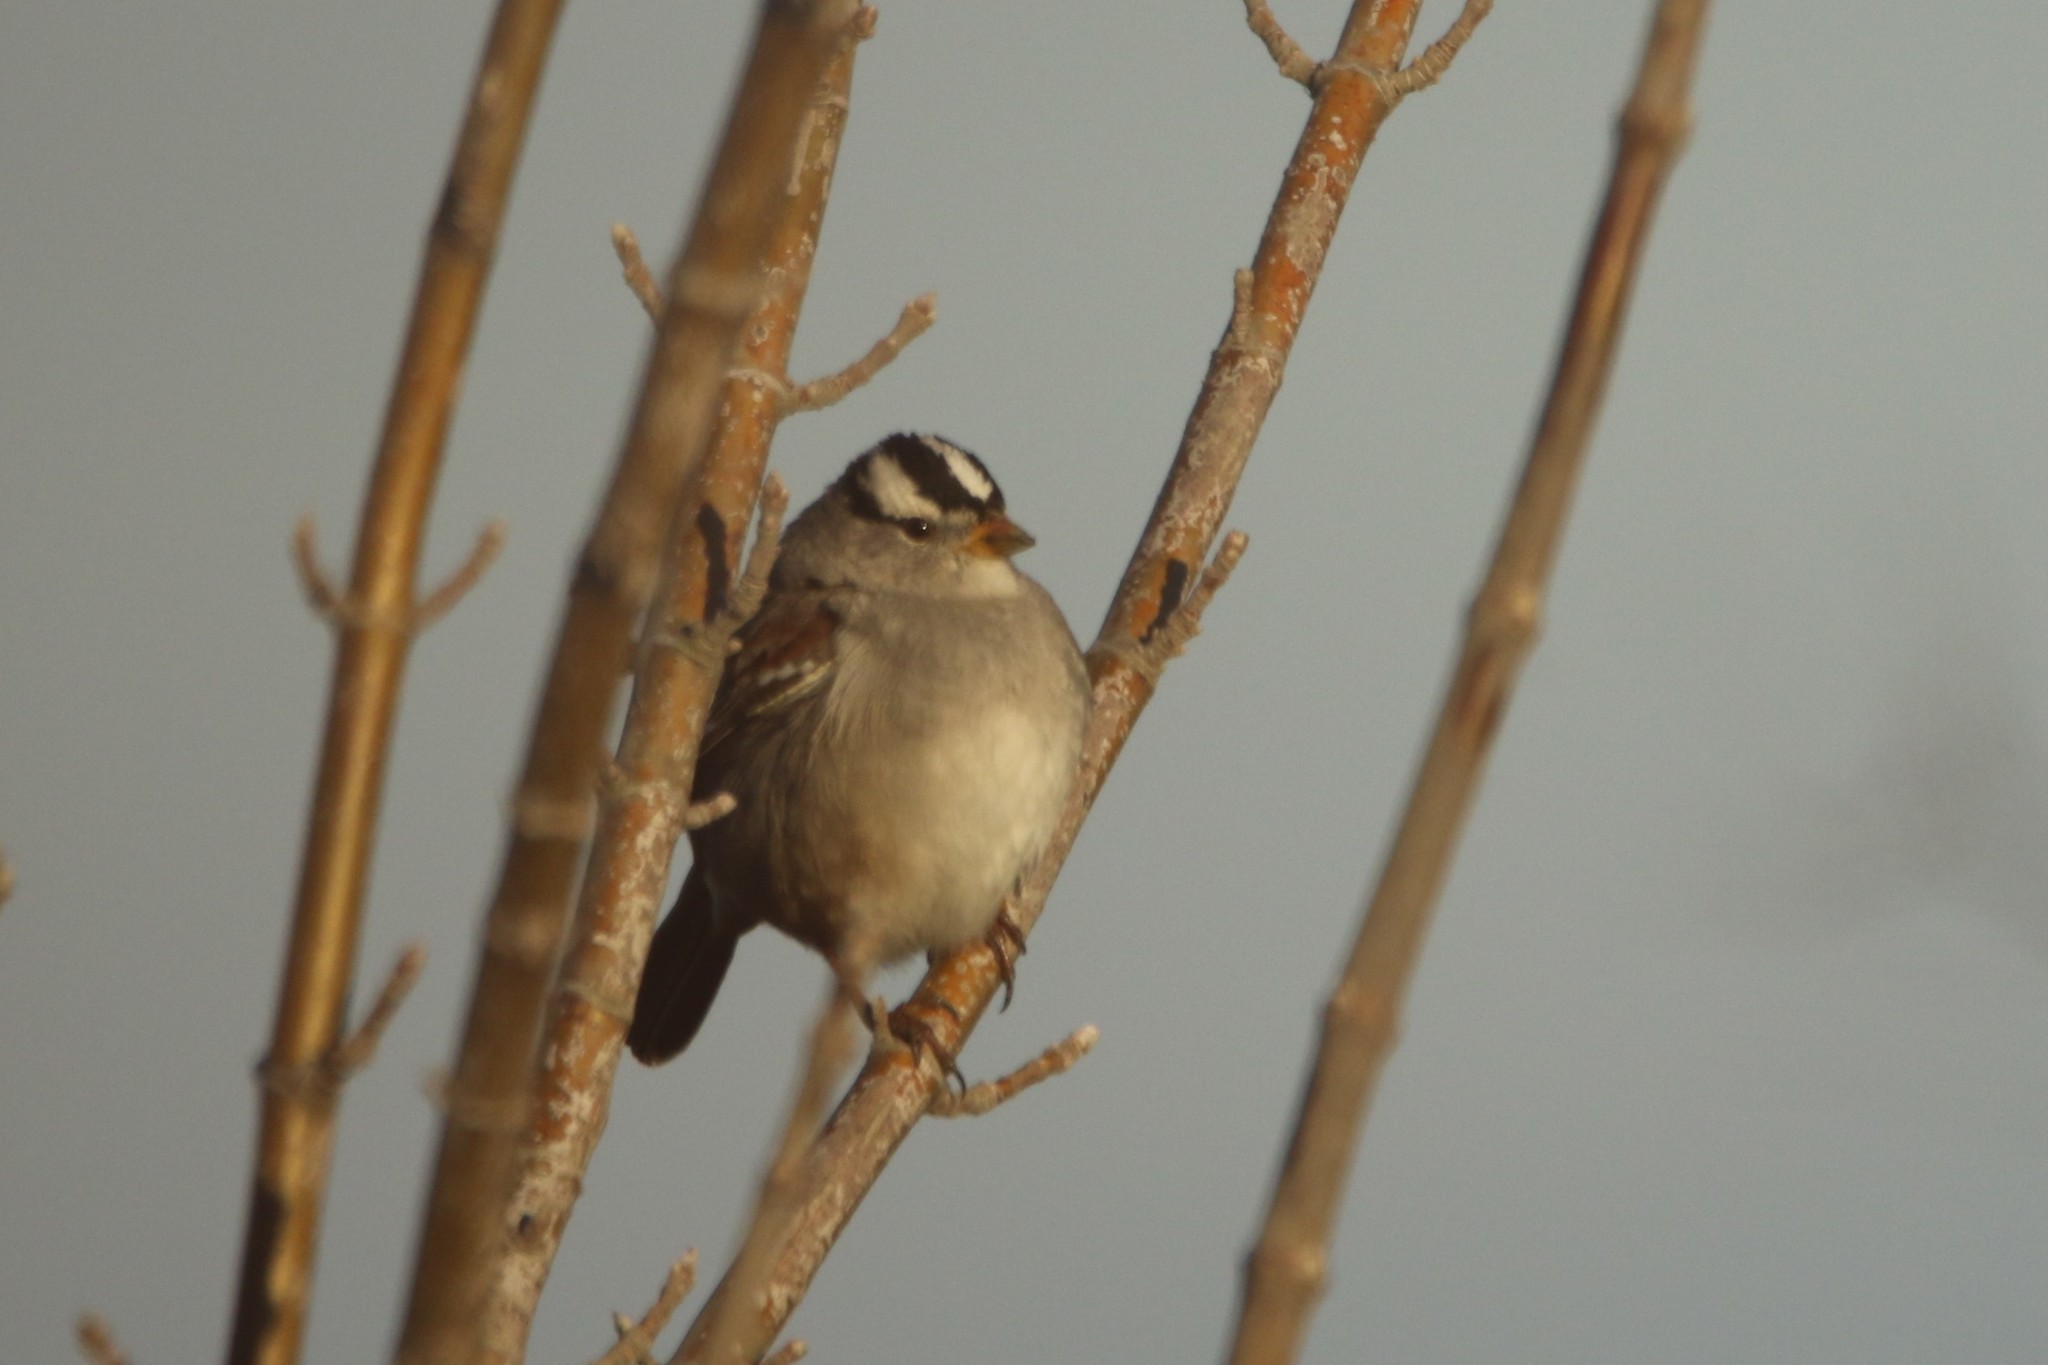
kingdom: Animalia
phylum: Chordata
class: Aves
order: Passeriformes
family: Passerellidae
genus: Zonotrichia
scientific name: Zonotrichia leucophrys
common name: White-crowned sparrow
